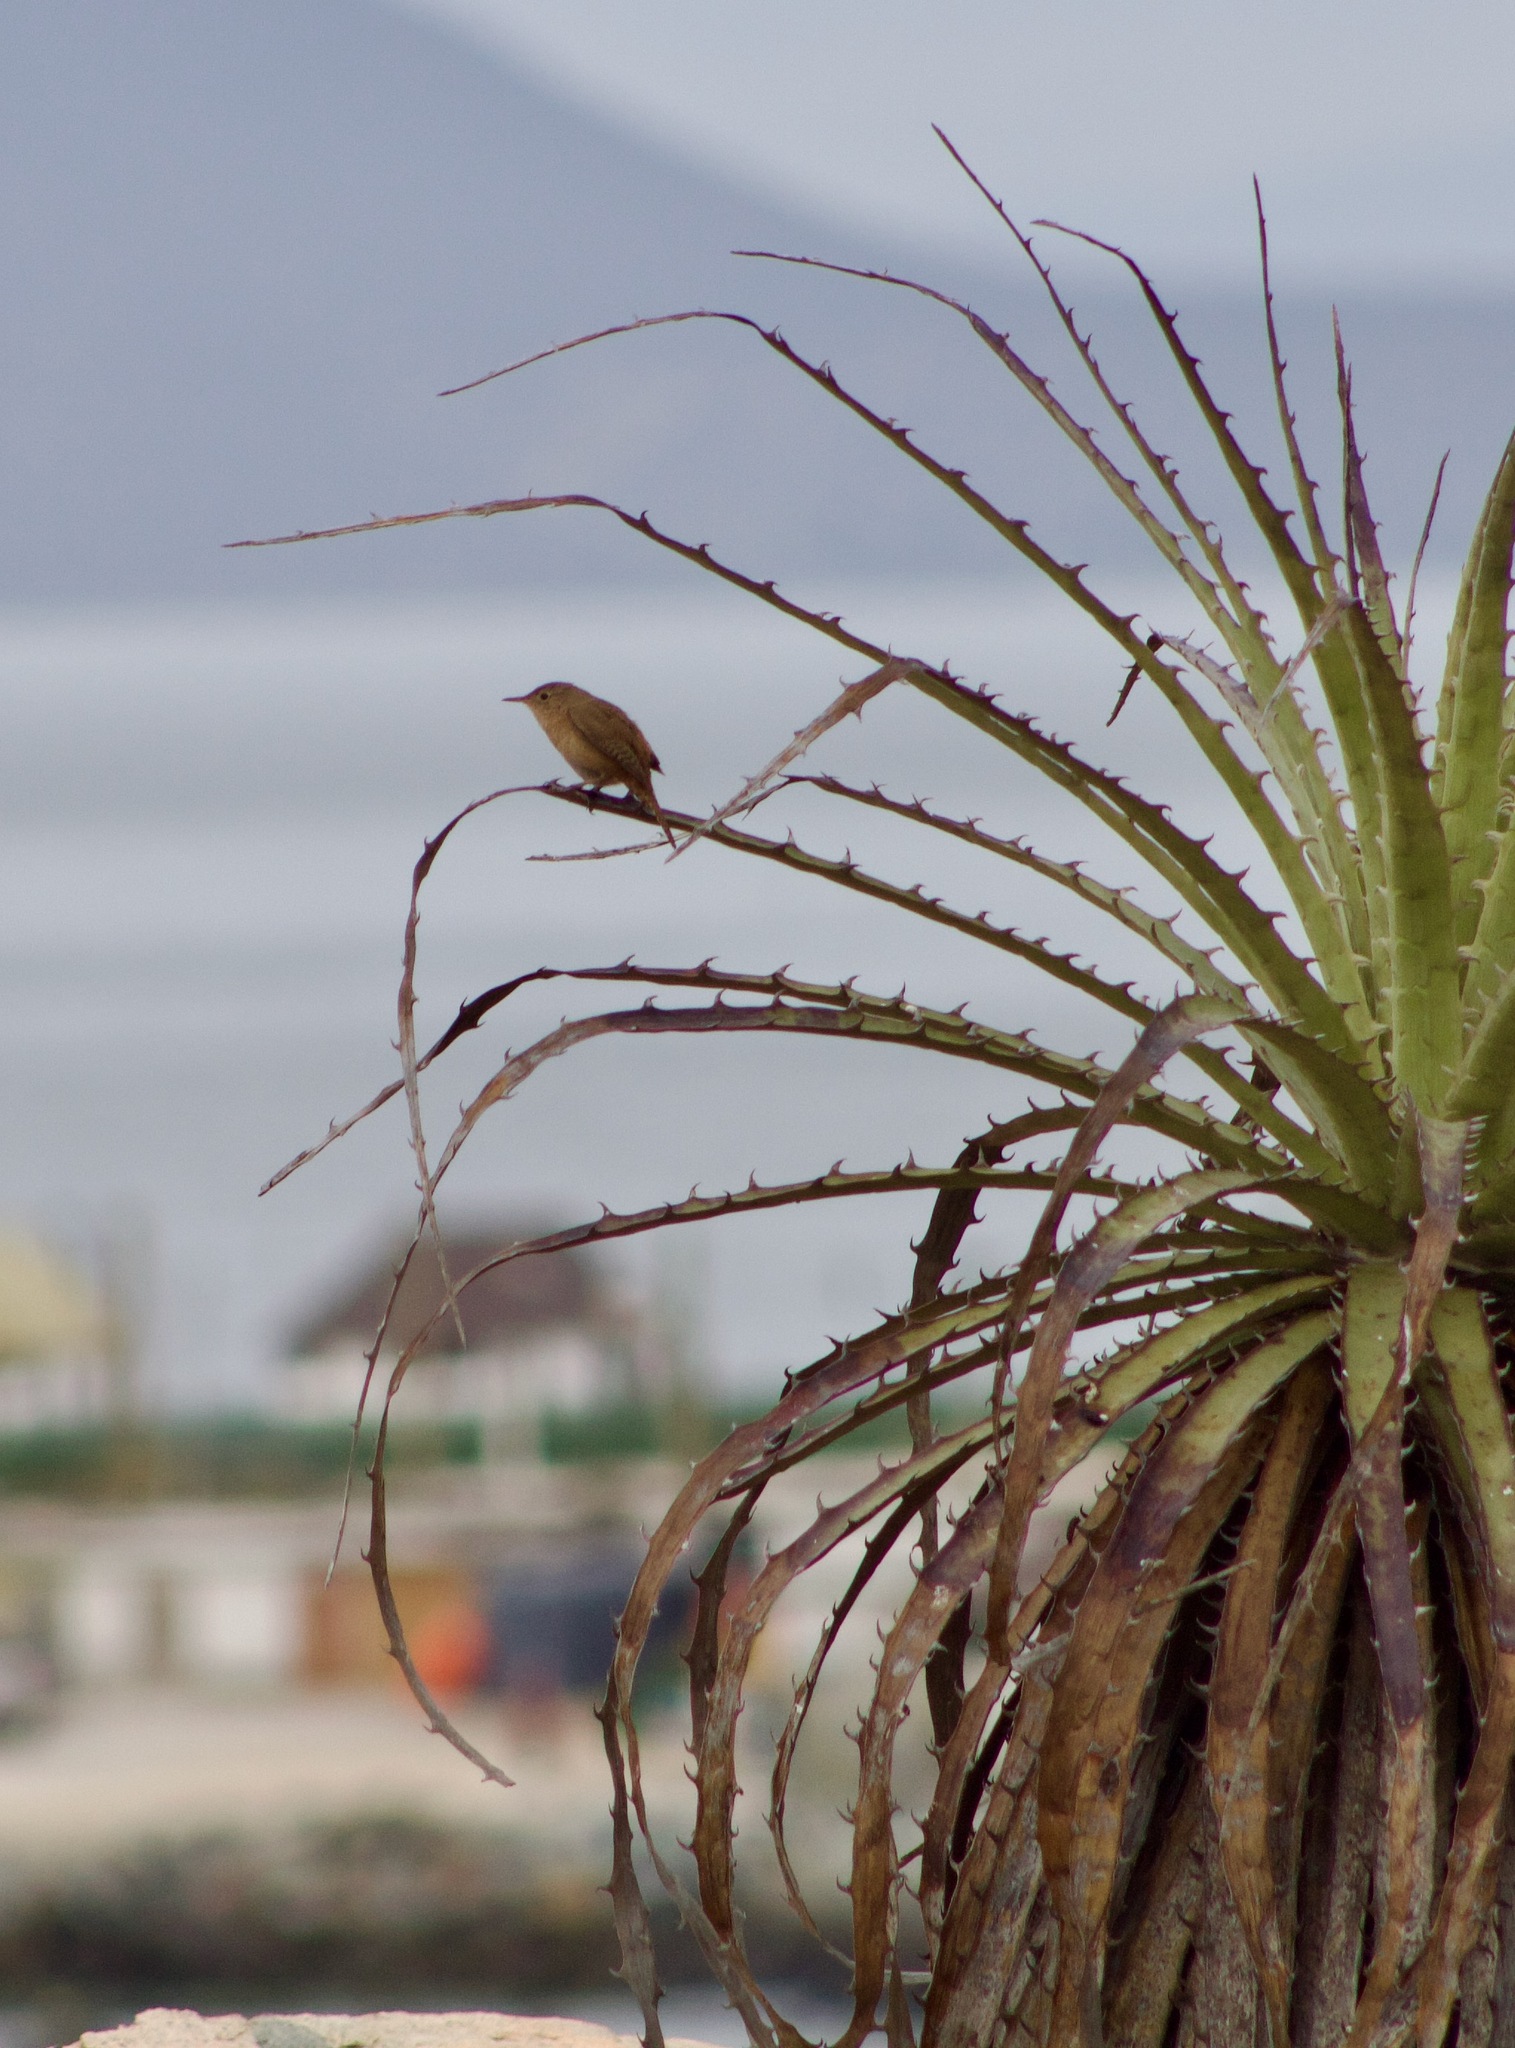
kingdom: Animalia
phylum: Chordata
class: Aves
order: Passeriformes
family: Troglodytidae
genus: Troglodytes
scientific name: Troglodytes aedon
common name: House wren
